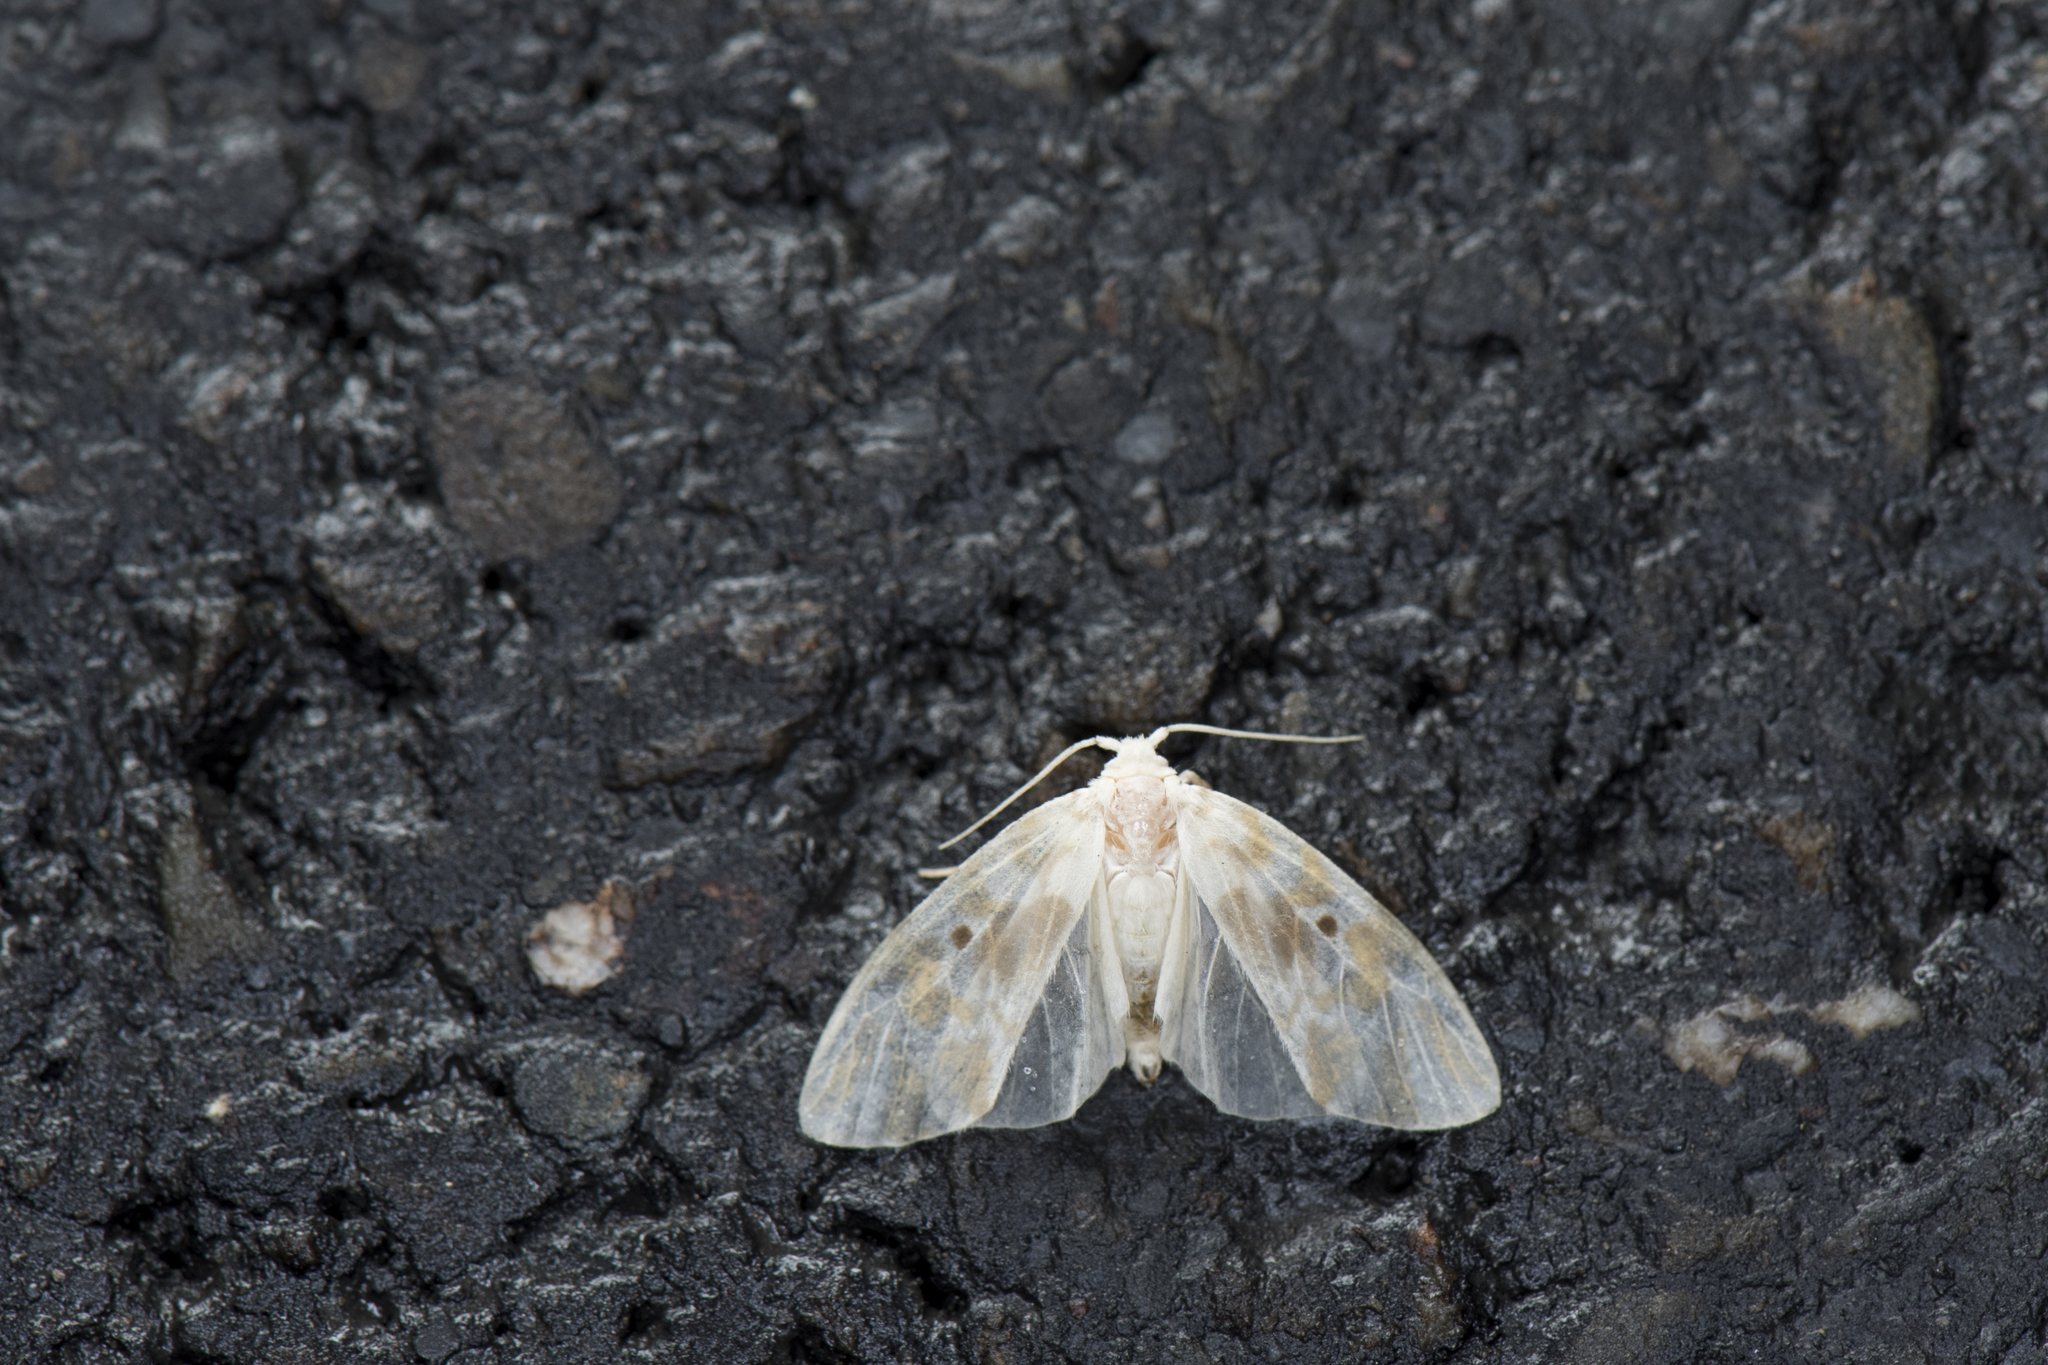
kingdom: Animalia
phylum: Arthropoda
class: Insecta
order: Lepidoptera
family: Erebidae
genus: Nudaria
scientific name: Nudaria ranruna
